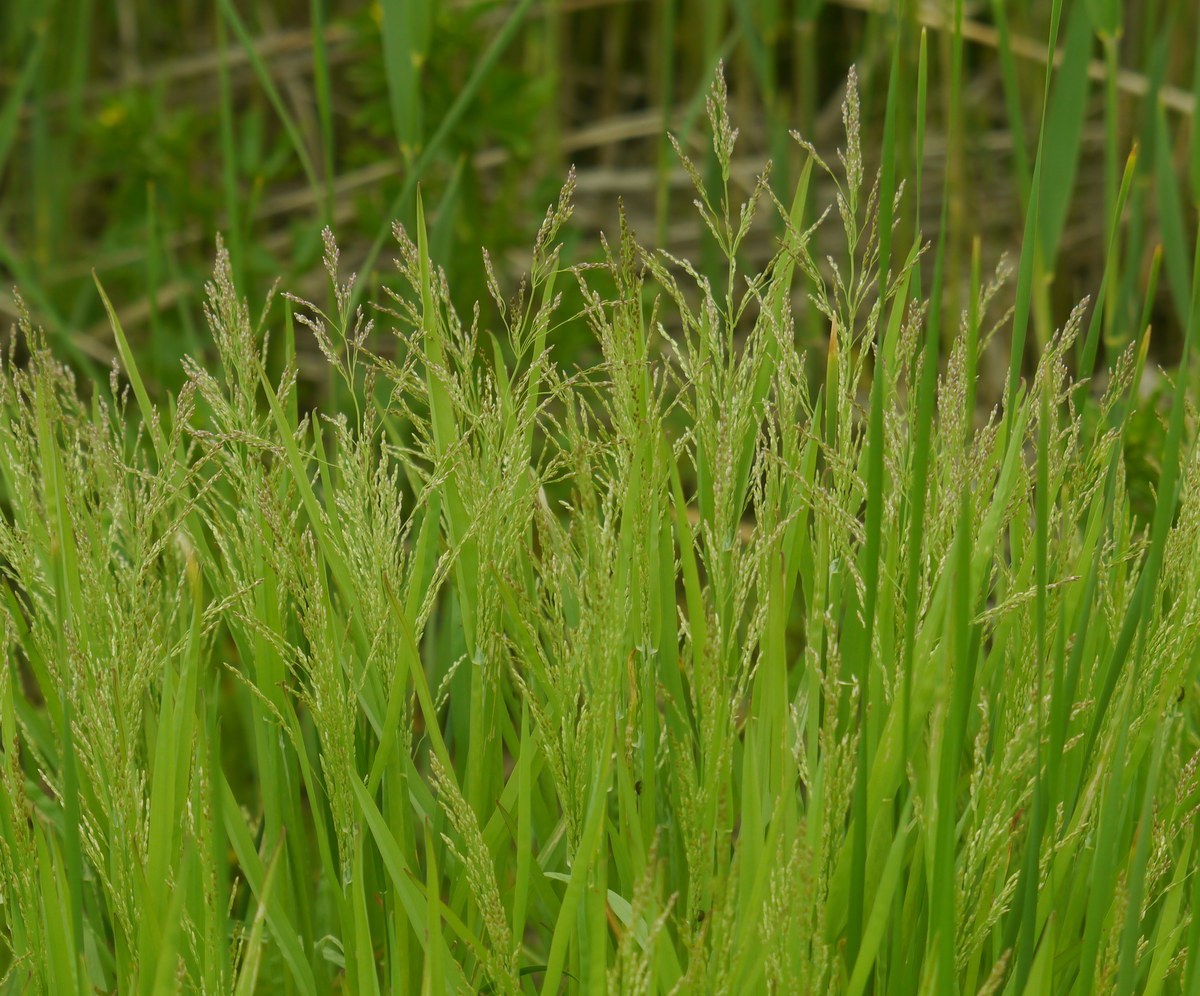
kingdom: Plantae
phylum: Tracheophyta
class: Liliopsida
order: Poales
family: Poaceae
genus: Catabrosa
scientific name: Catabrosa aquatica
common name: Whorl-grass
